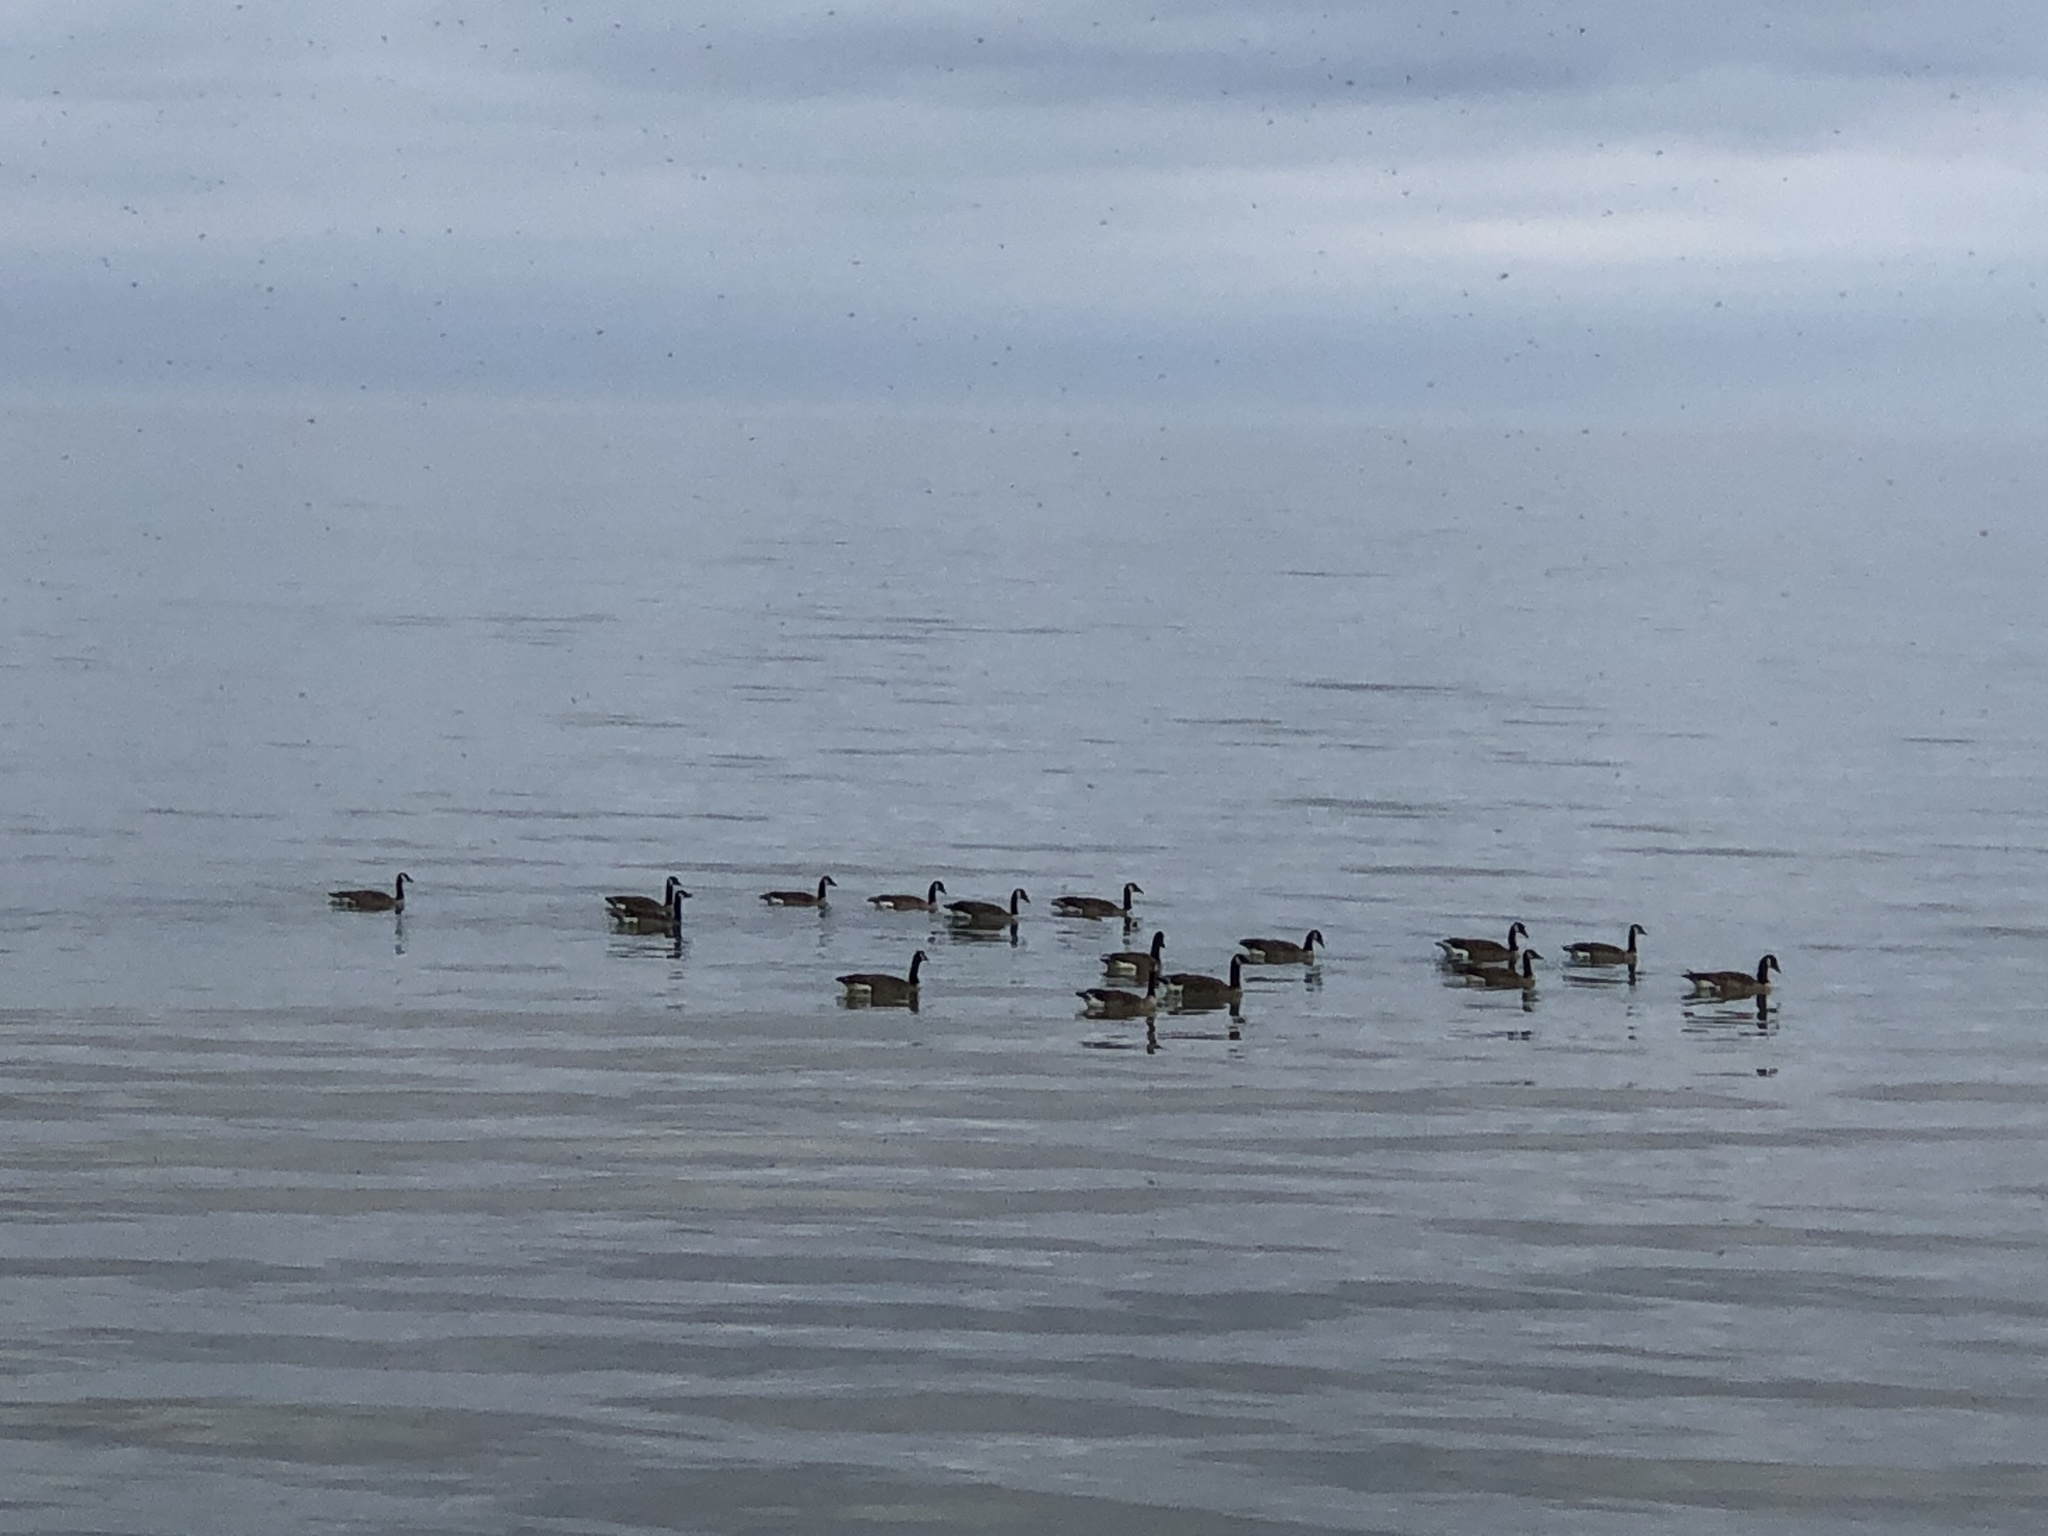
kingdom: Animalia
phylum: Chordata
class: Aves
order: Anseriformes
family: Anatidae
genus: Branta
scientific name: Branta canadensis
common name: Canada goose
